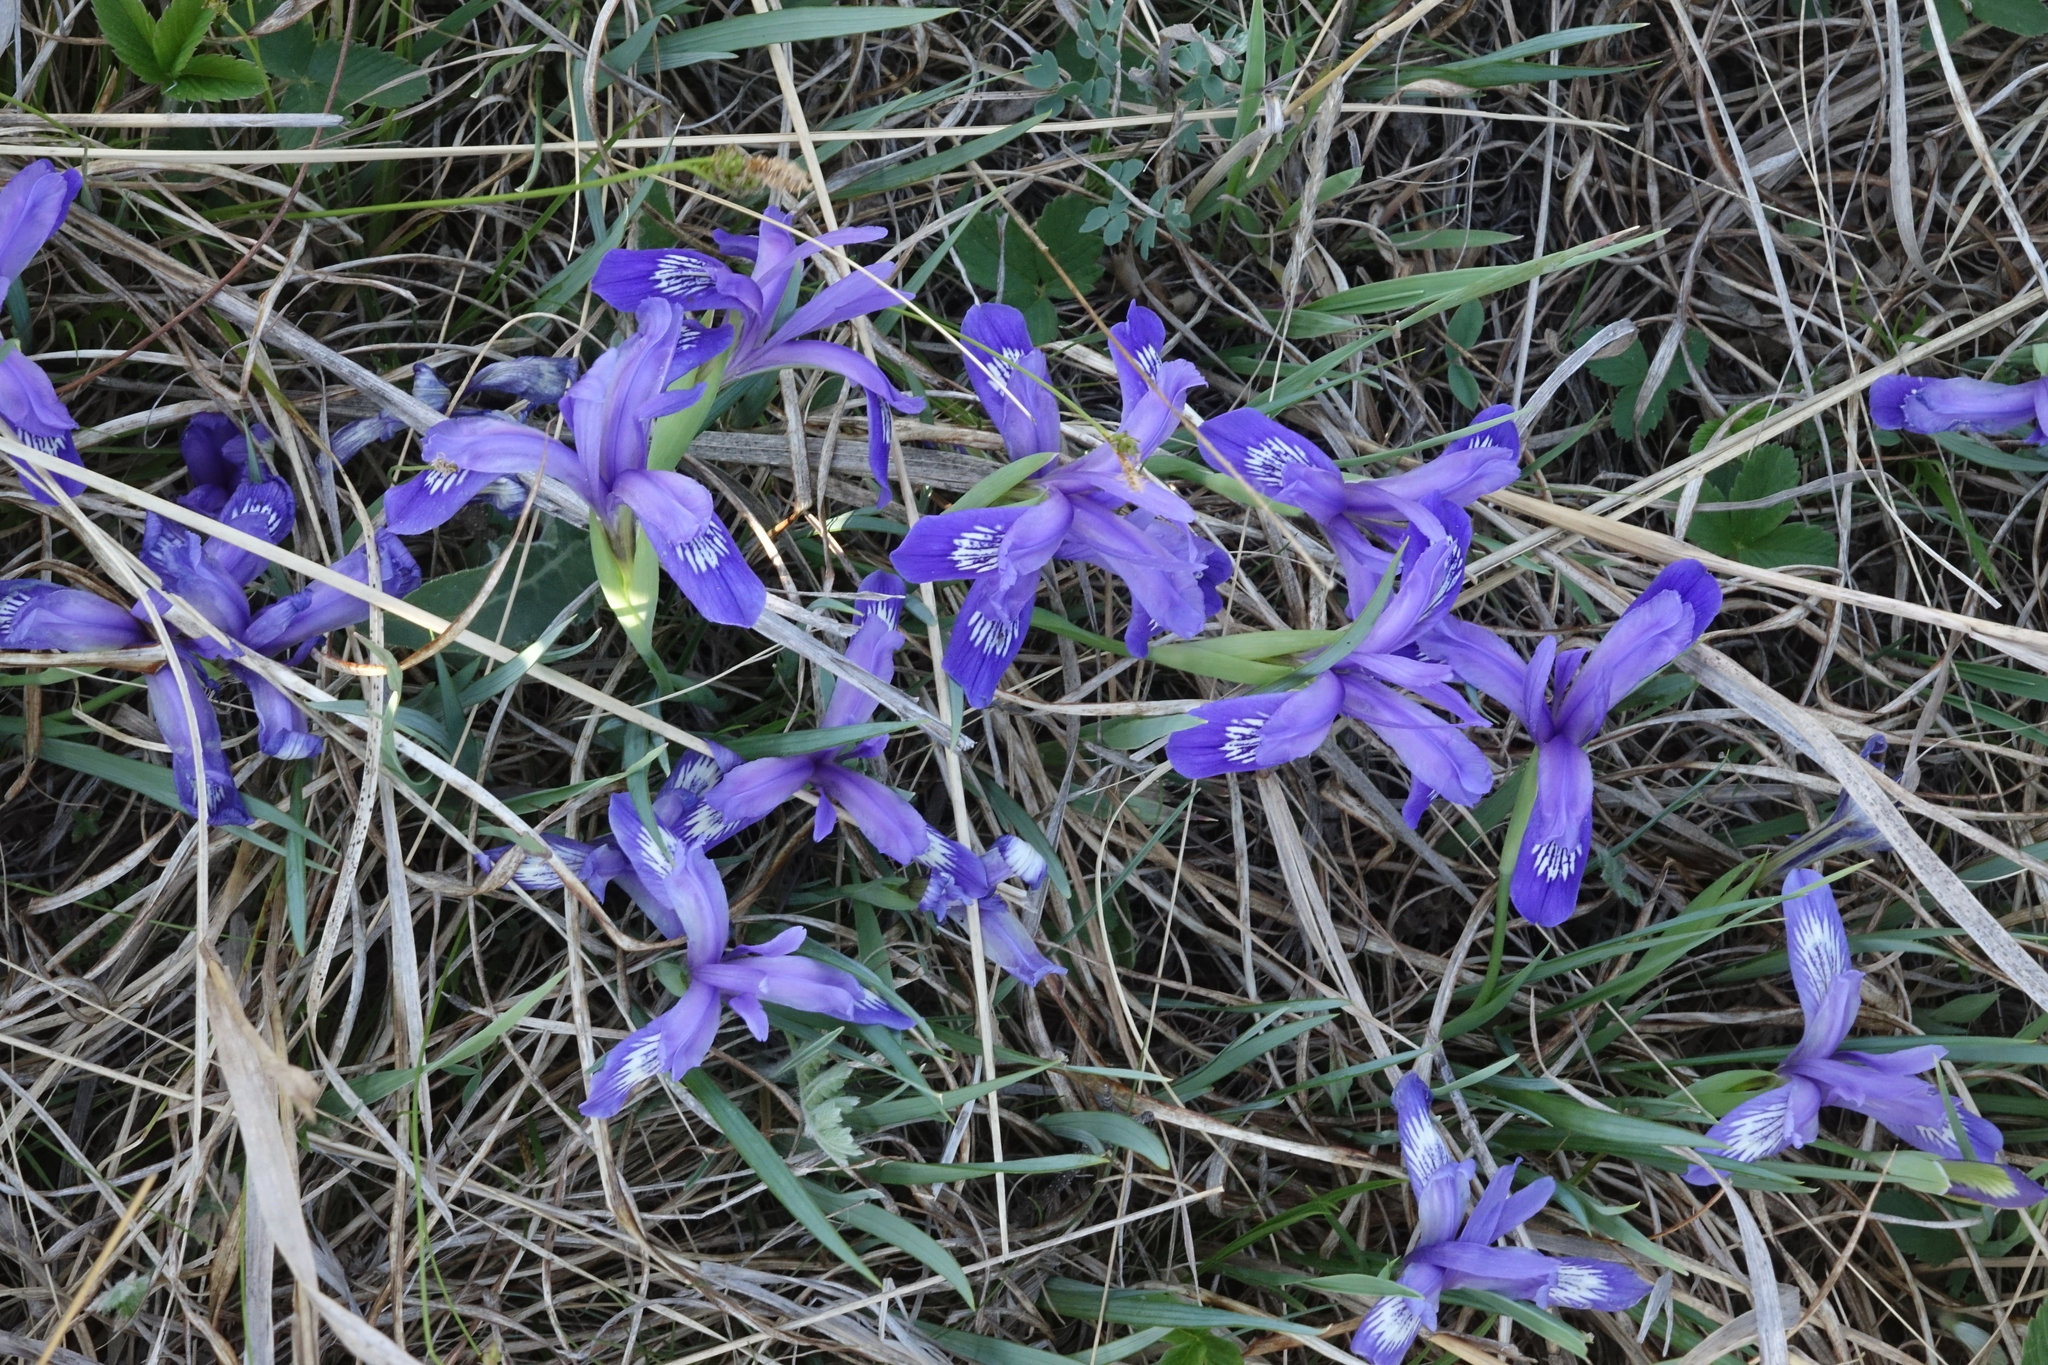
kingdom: Plantae
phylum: Tracheophyta
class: Liliopsida
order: Asparagales
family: Iridaceae
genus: Iris
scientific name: Iris ruthenica
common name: Purple-bract iris
